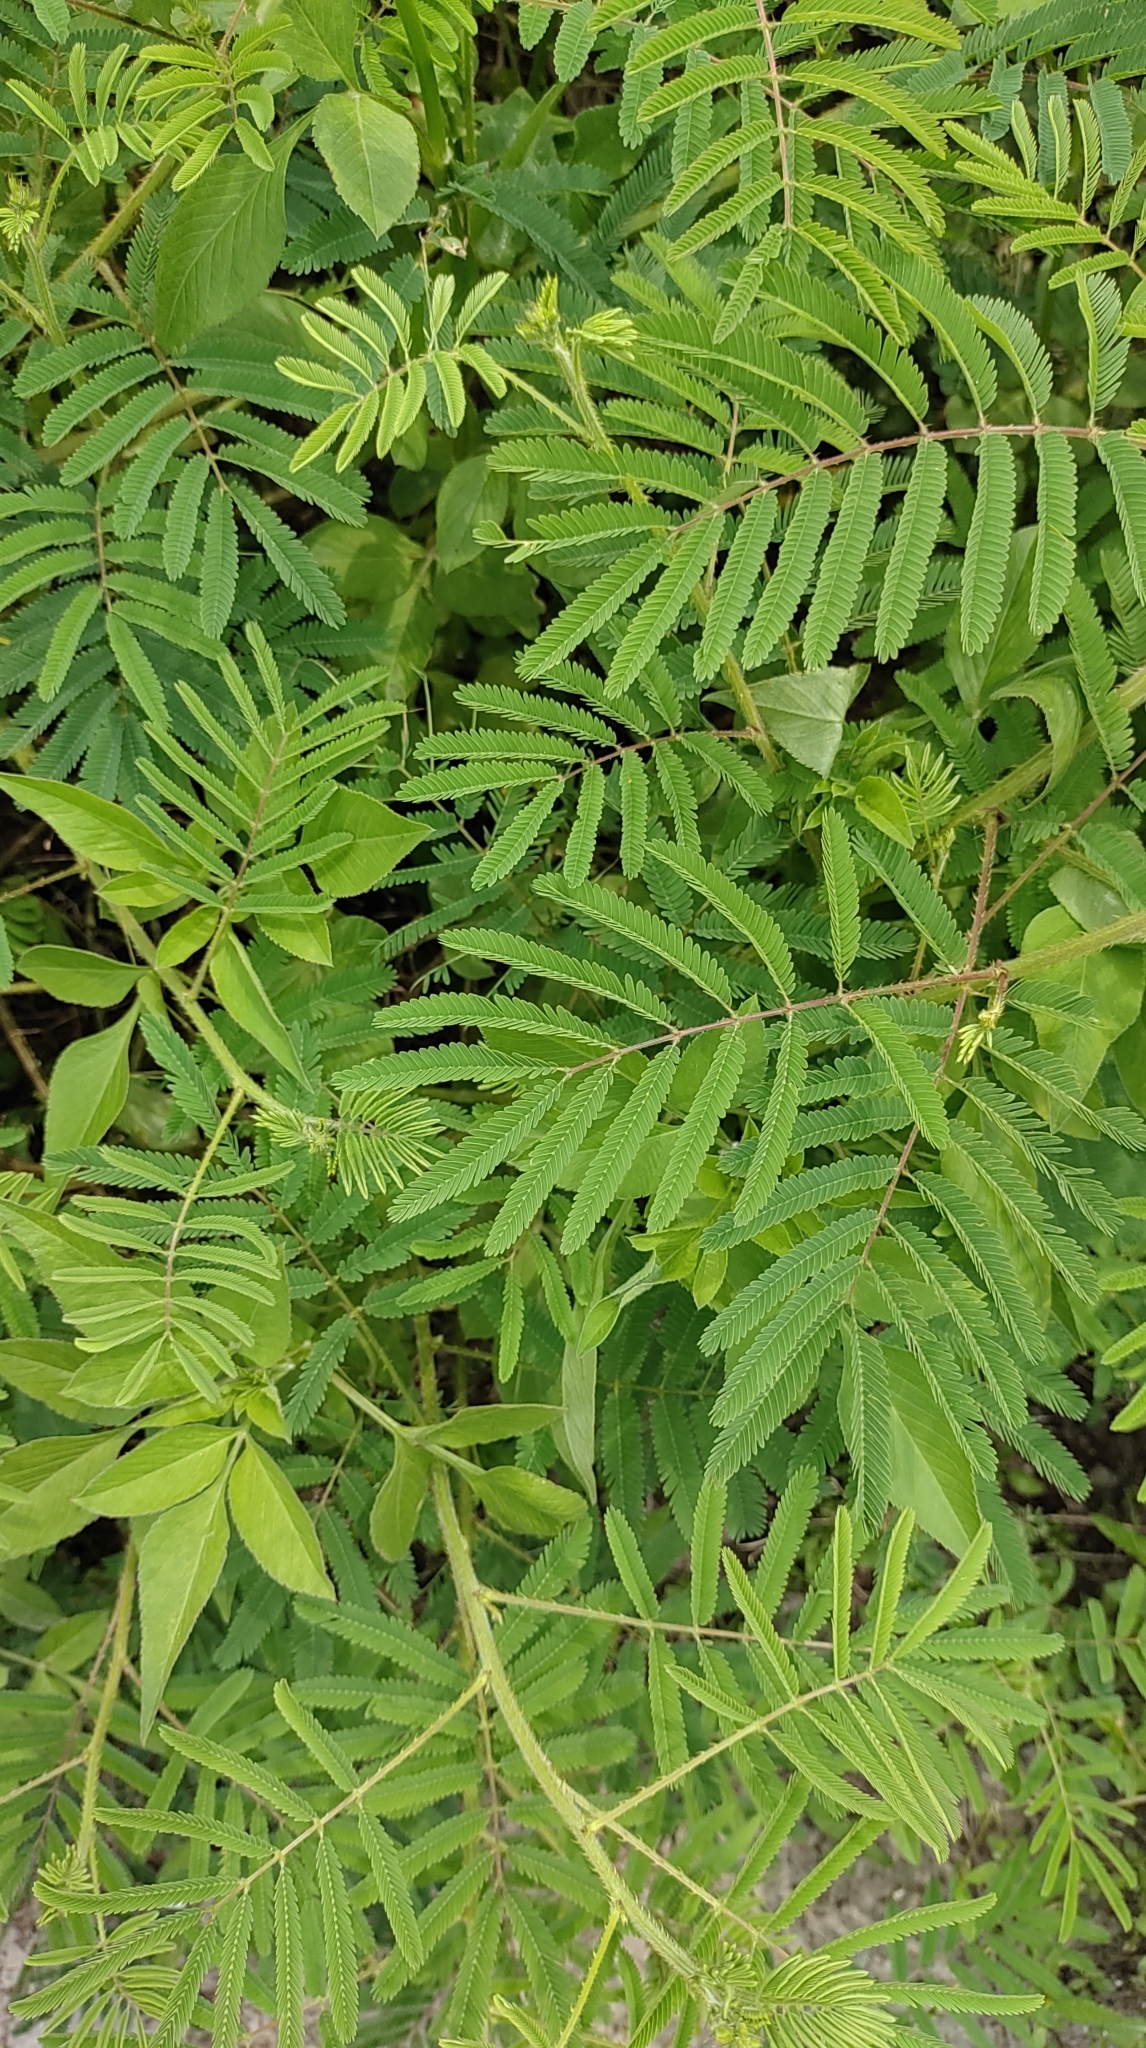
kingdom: Plantae
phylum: Tracheophyta
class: Magnoliopsida
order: Fabales
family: Fabaceae
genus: Mimosa
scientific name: Mimosa diplotricha
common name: Giant sensitive-plant
